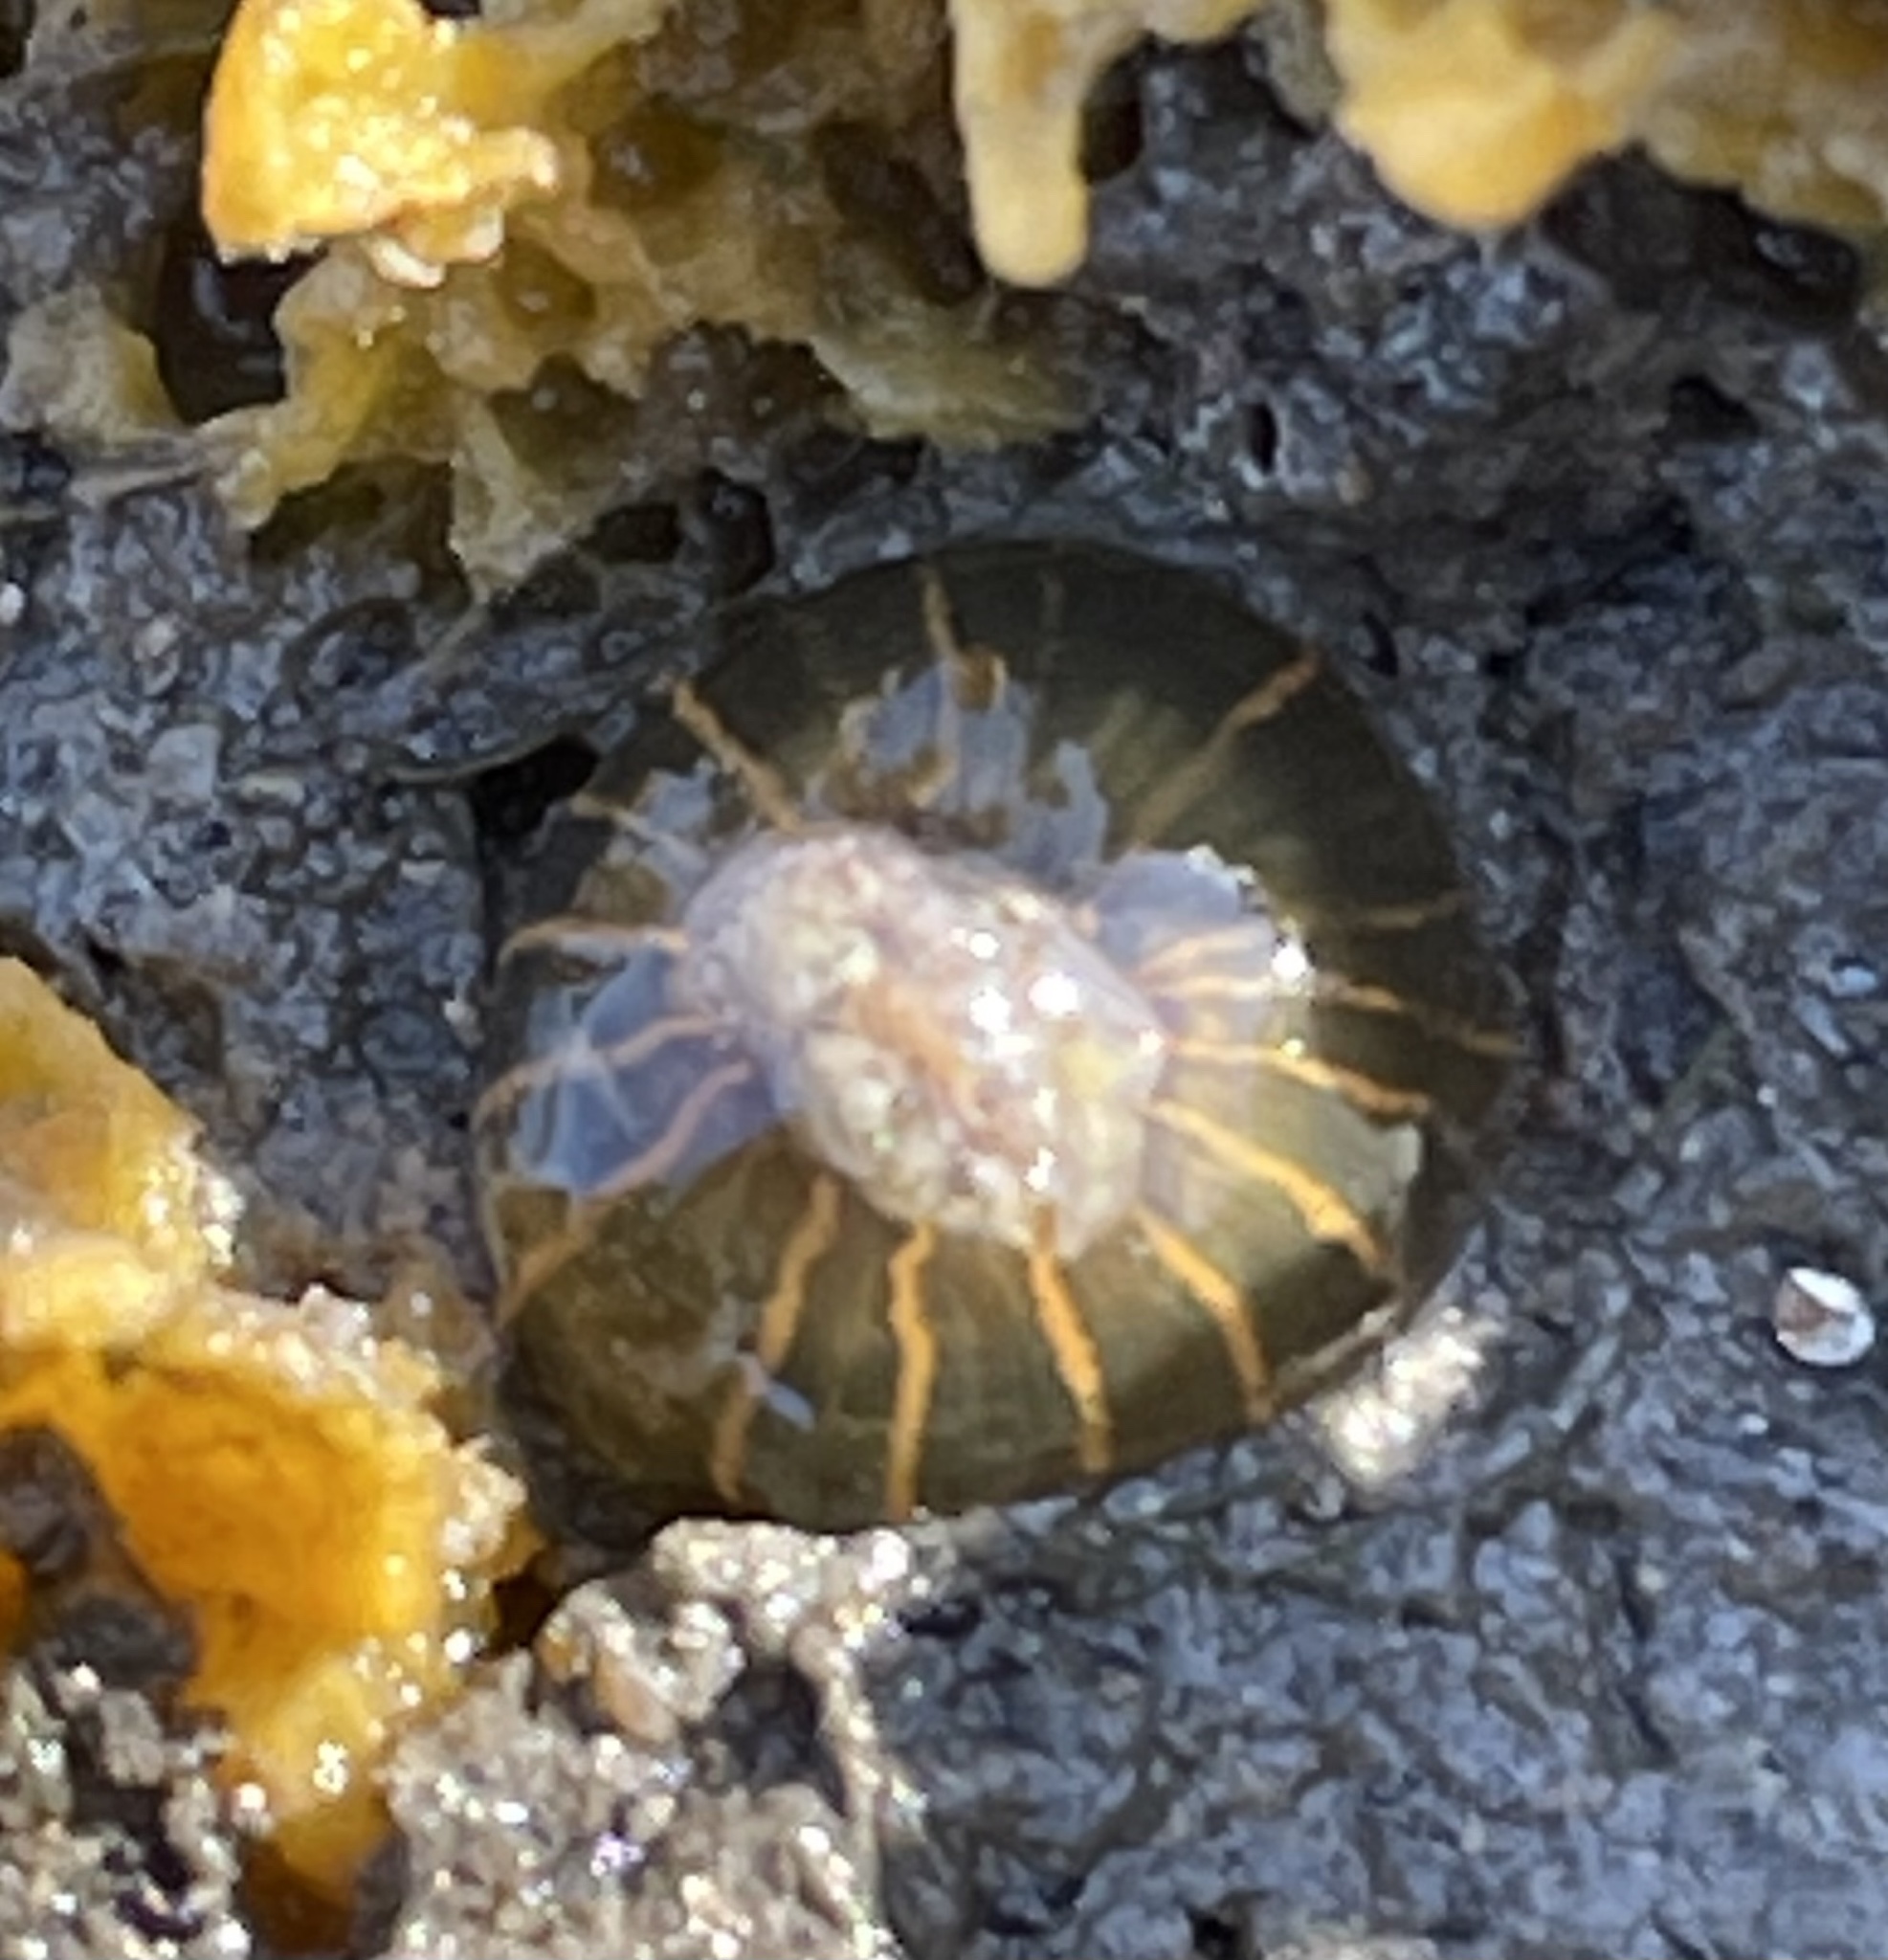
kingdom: Animalia
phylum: Cnidaria
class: Anthozoa
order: Actiniaria
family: Diadumenidae
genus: Diadumene
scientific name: Diadumene lineata
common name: Orange-striped anemone
